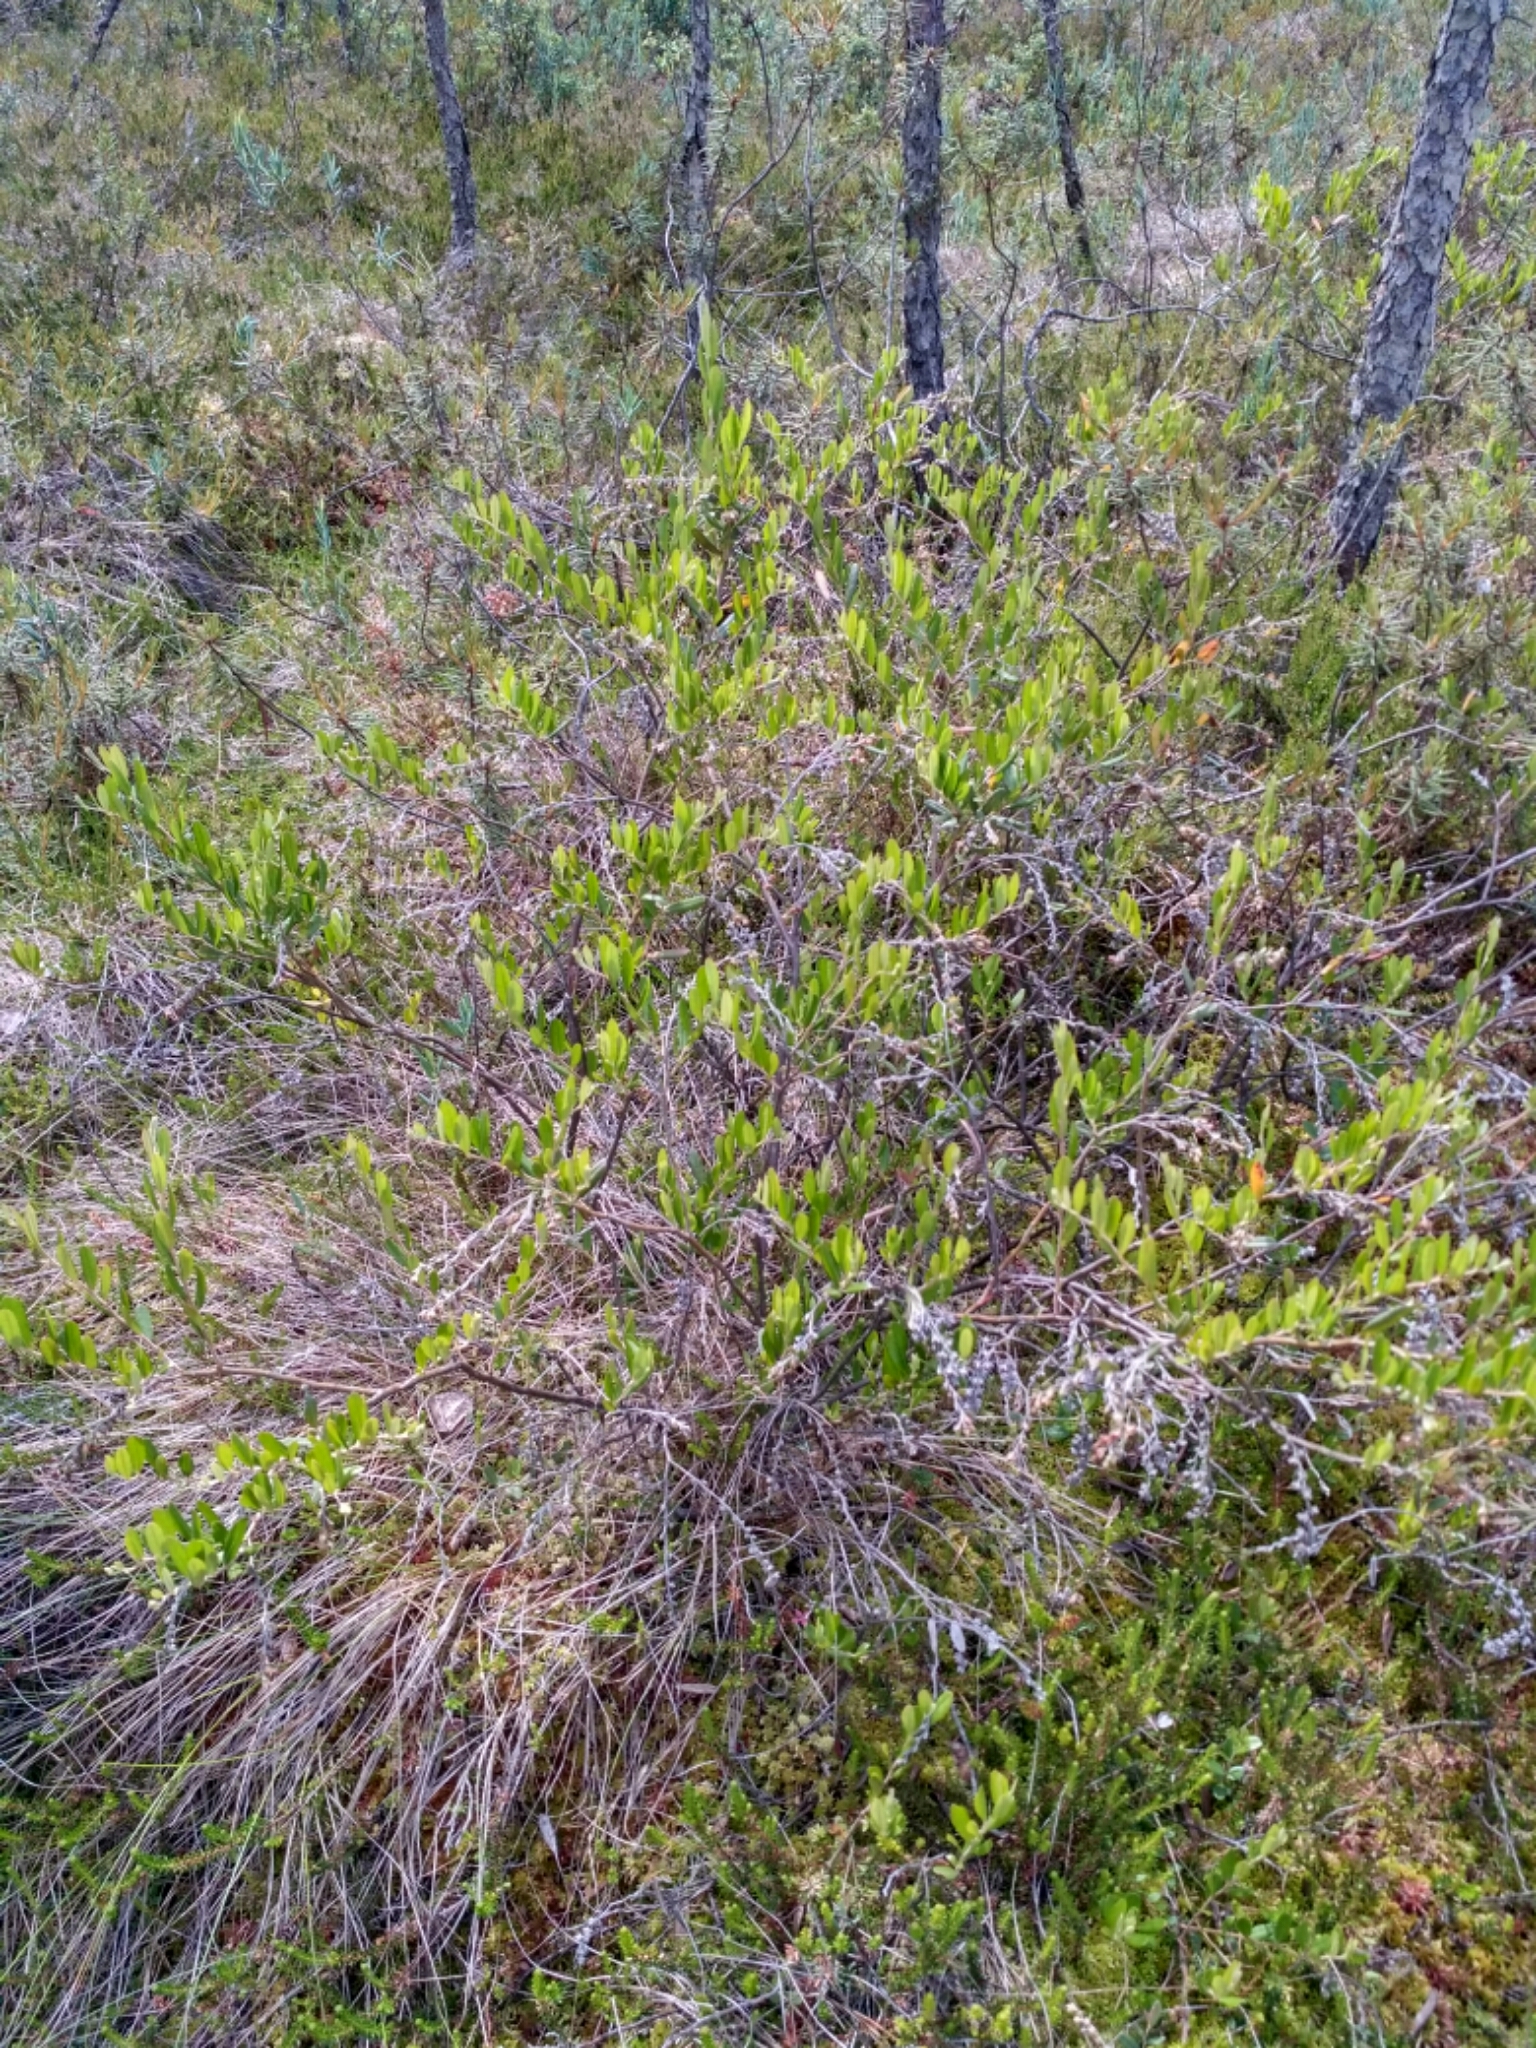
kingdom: Plantae
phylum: Tracheophyta
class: Magnoliopsida
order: Ericales
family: Ericaceae
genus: Chamaedaphne
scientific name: Chamaedaphne calyculata
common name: Leatherleaf
